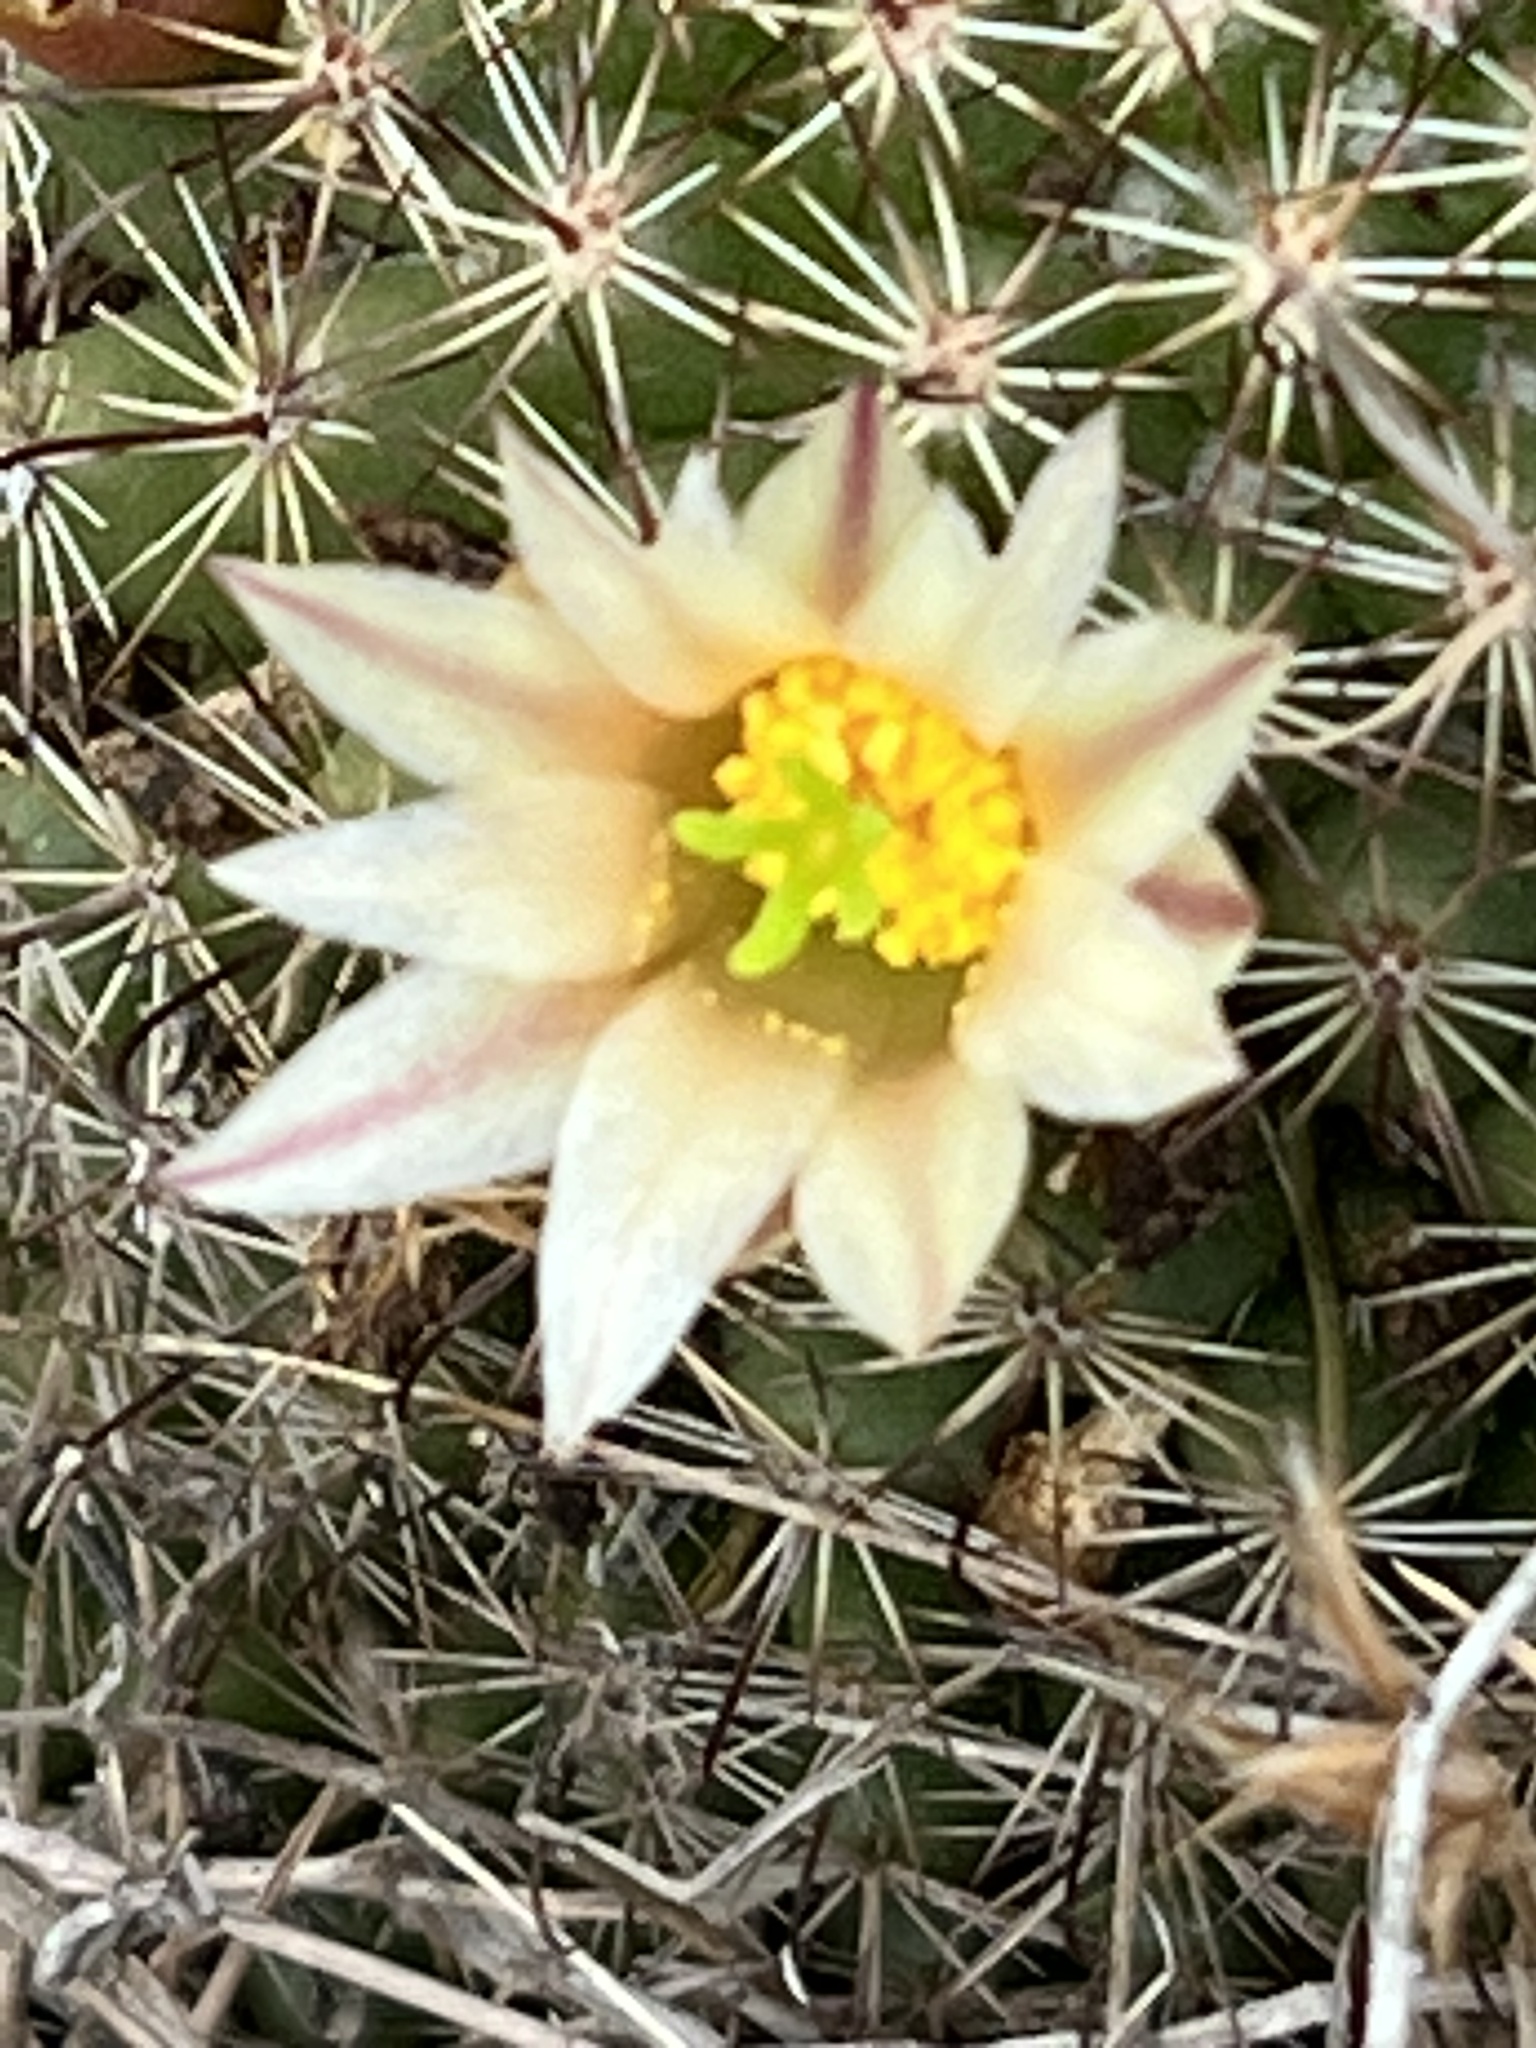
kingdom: Plantae
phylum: Tracheophyta
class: Magnoliopsida
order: Caryophyllales
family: Cactaceae
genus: Cochemiea
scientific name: Cochemiea dioica
